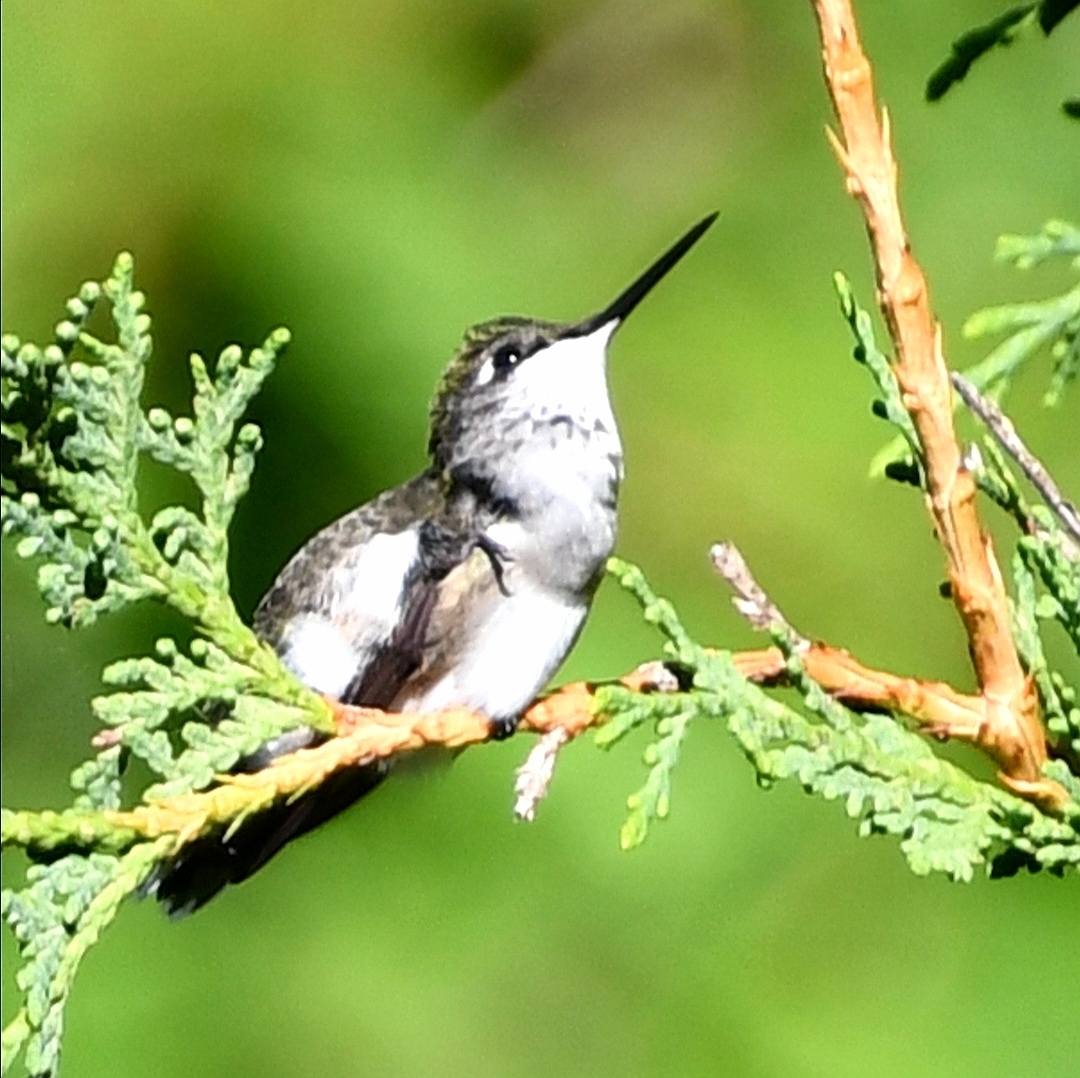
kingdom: Animalia
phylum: Chordata
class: Aves
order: Apodiformes
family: Trochilidae
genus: Archilochus
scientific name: Archilochus colubris
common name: Ruby-throated hummingbird
